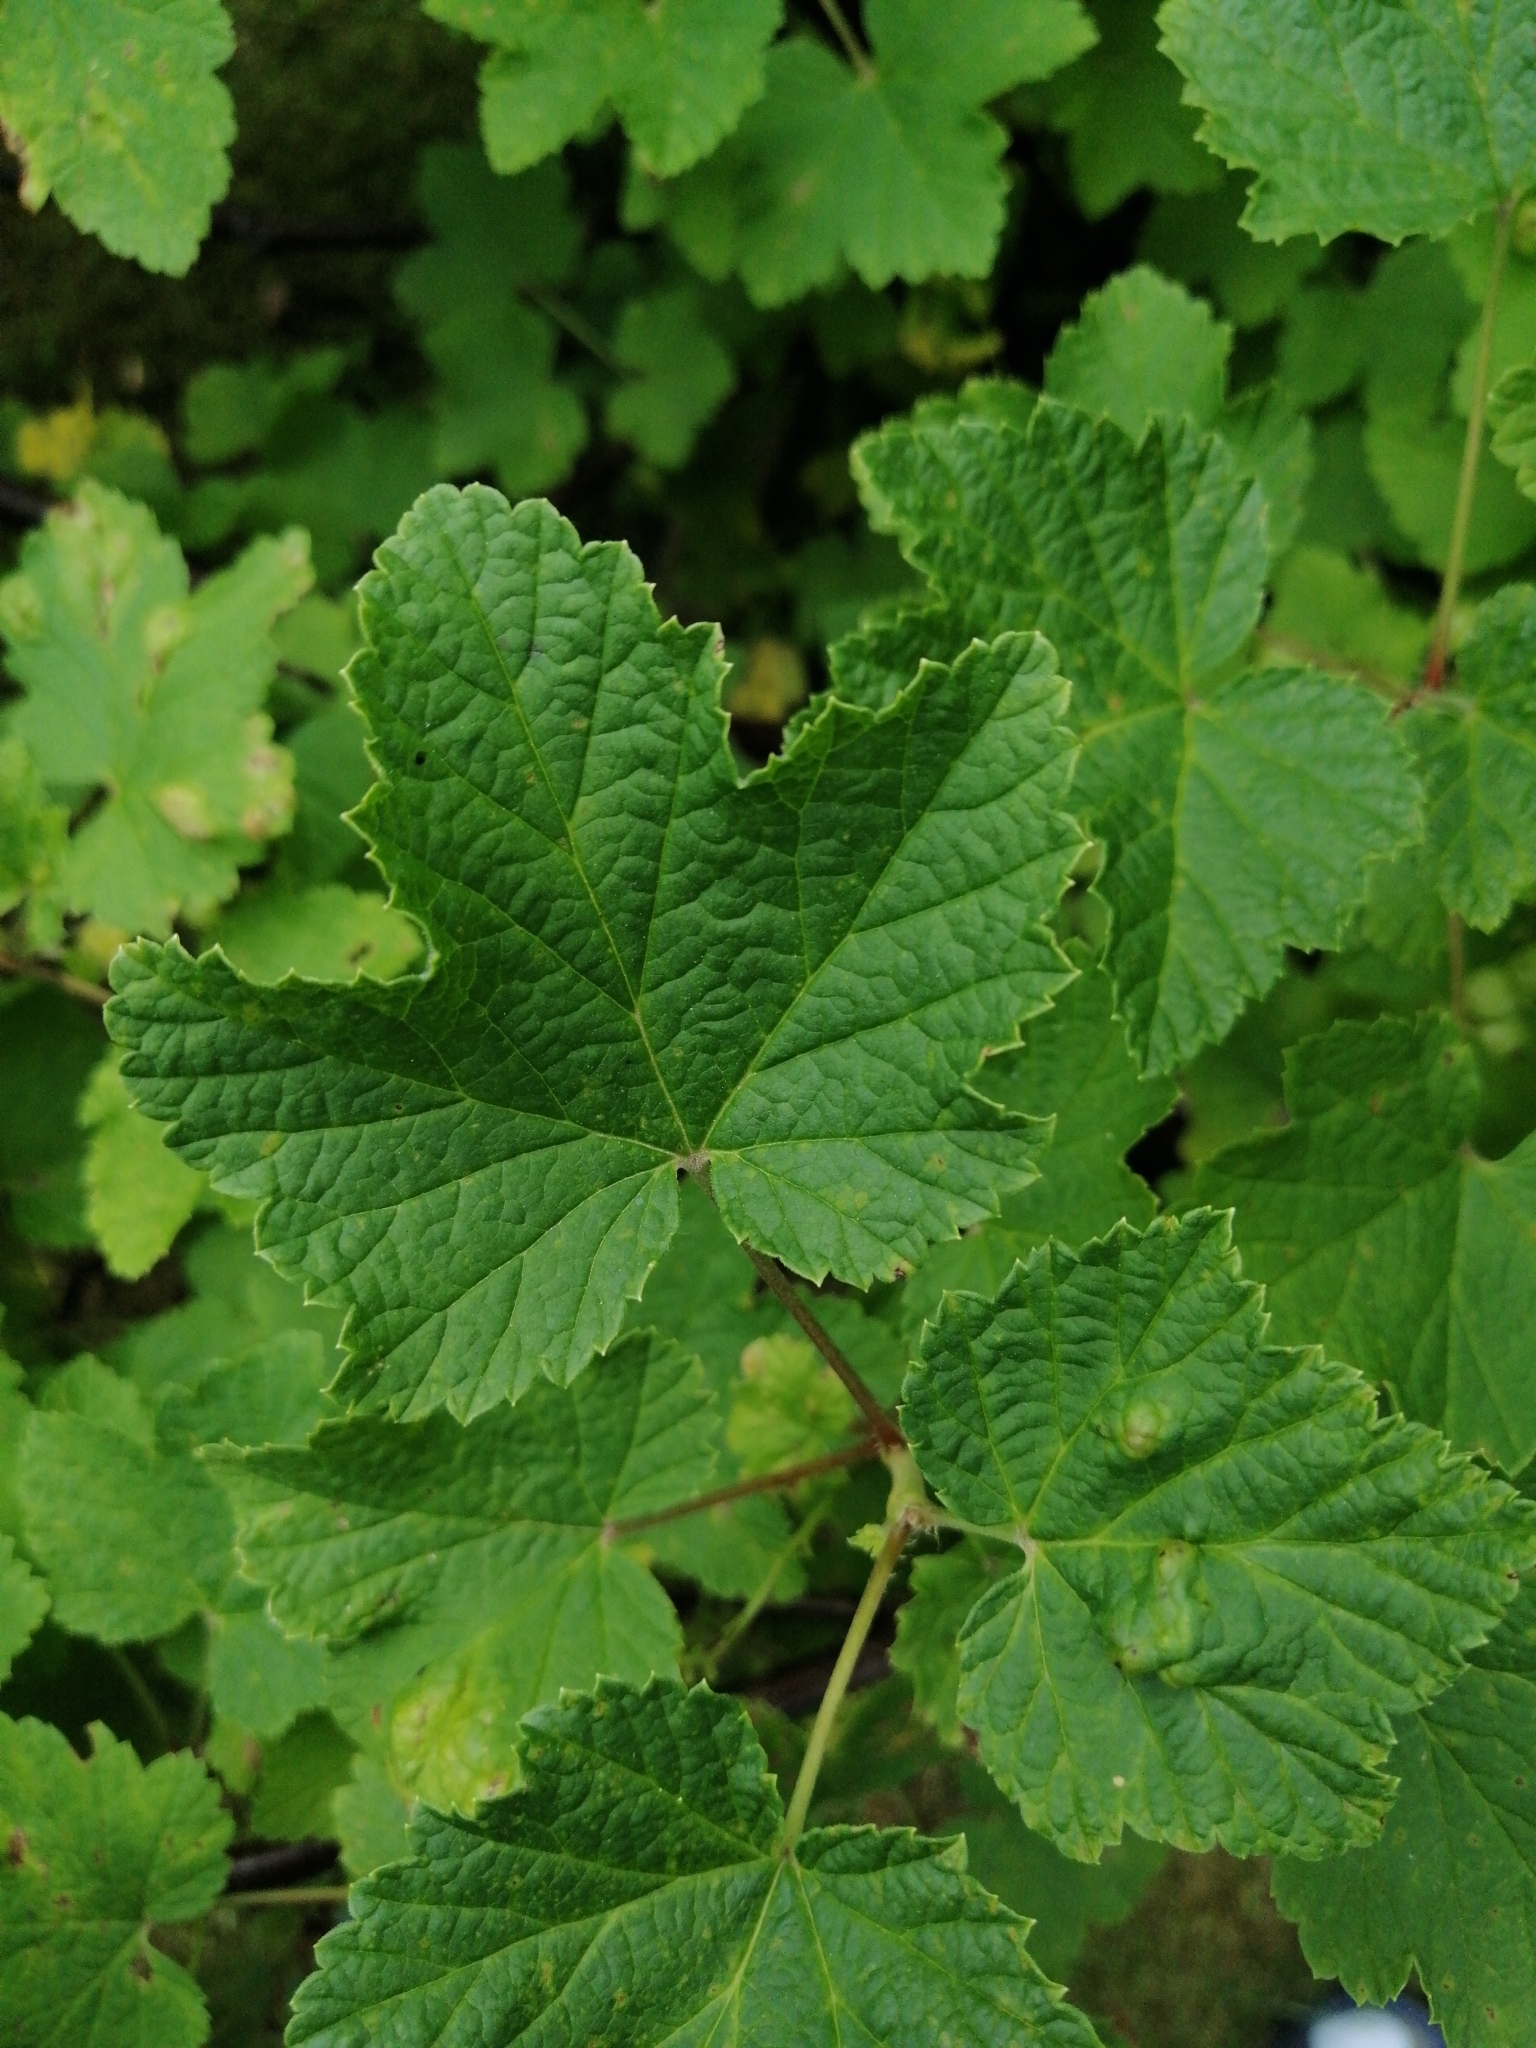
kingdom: Plantae
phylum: Tracheophyta
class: Magnoliopsida
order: Saxifragales
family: Grossulariaceae
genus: Ribes
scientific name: Ribes rubrum
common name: Red currant
